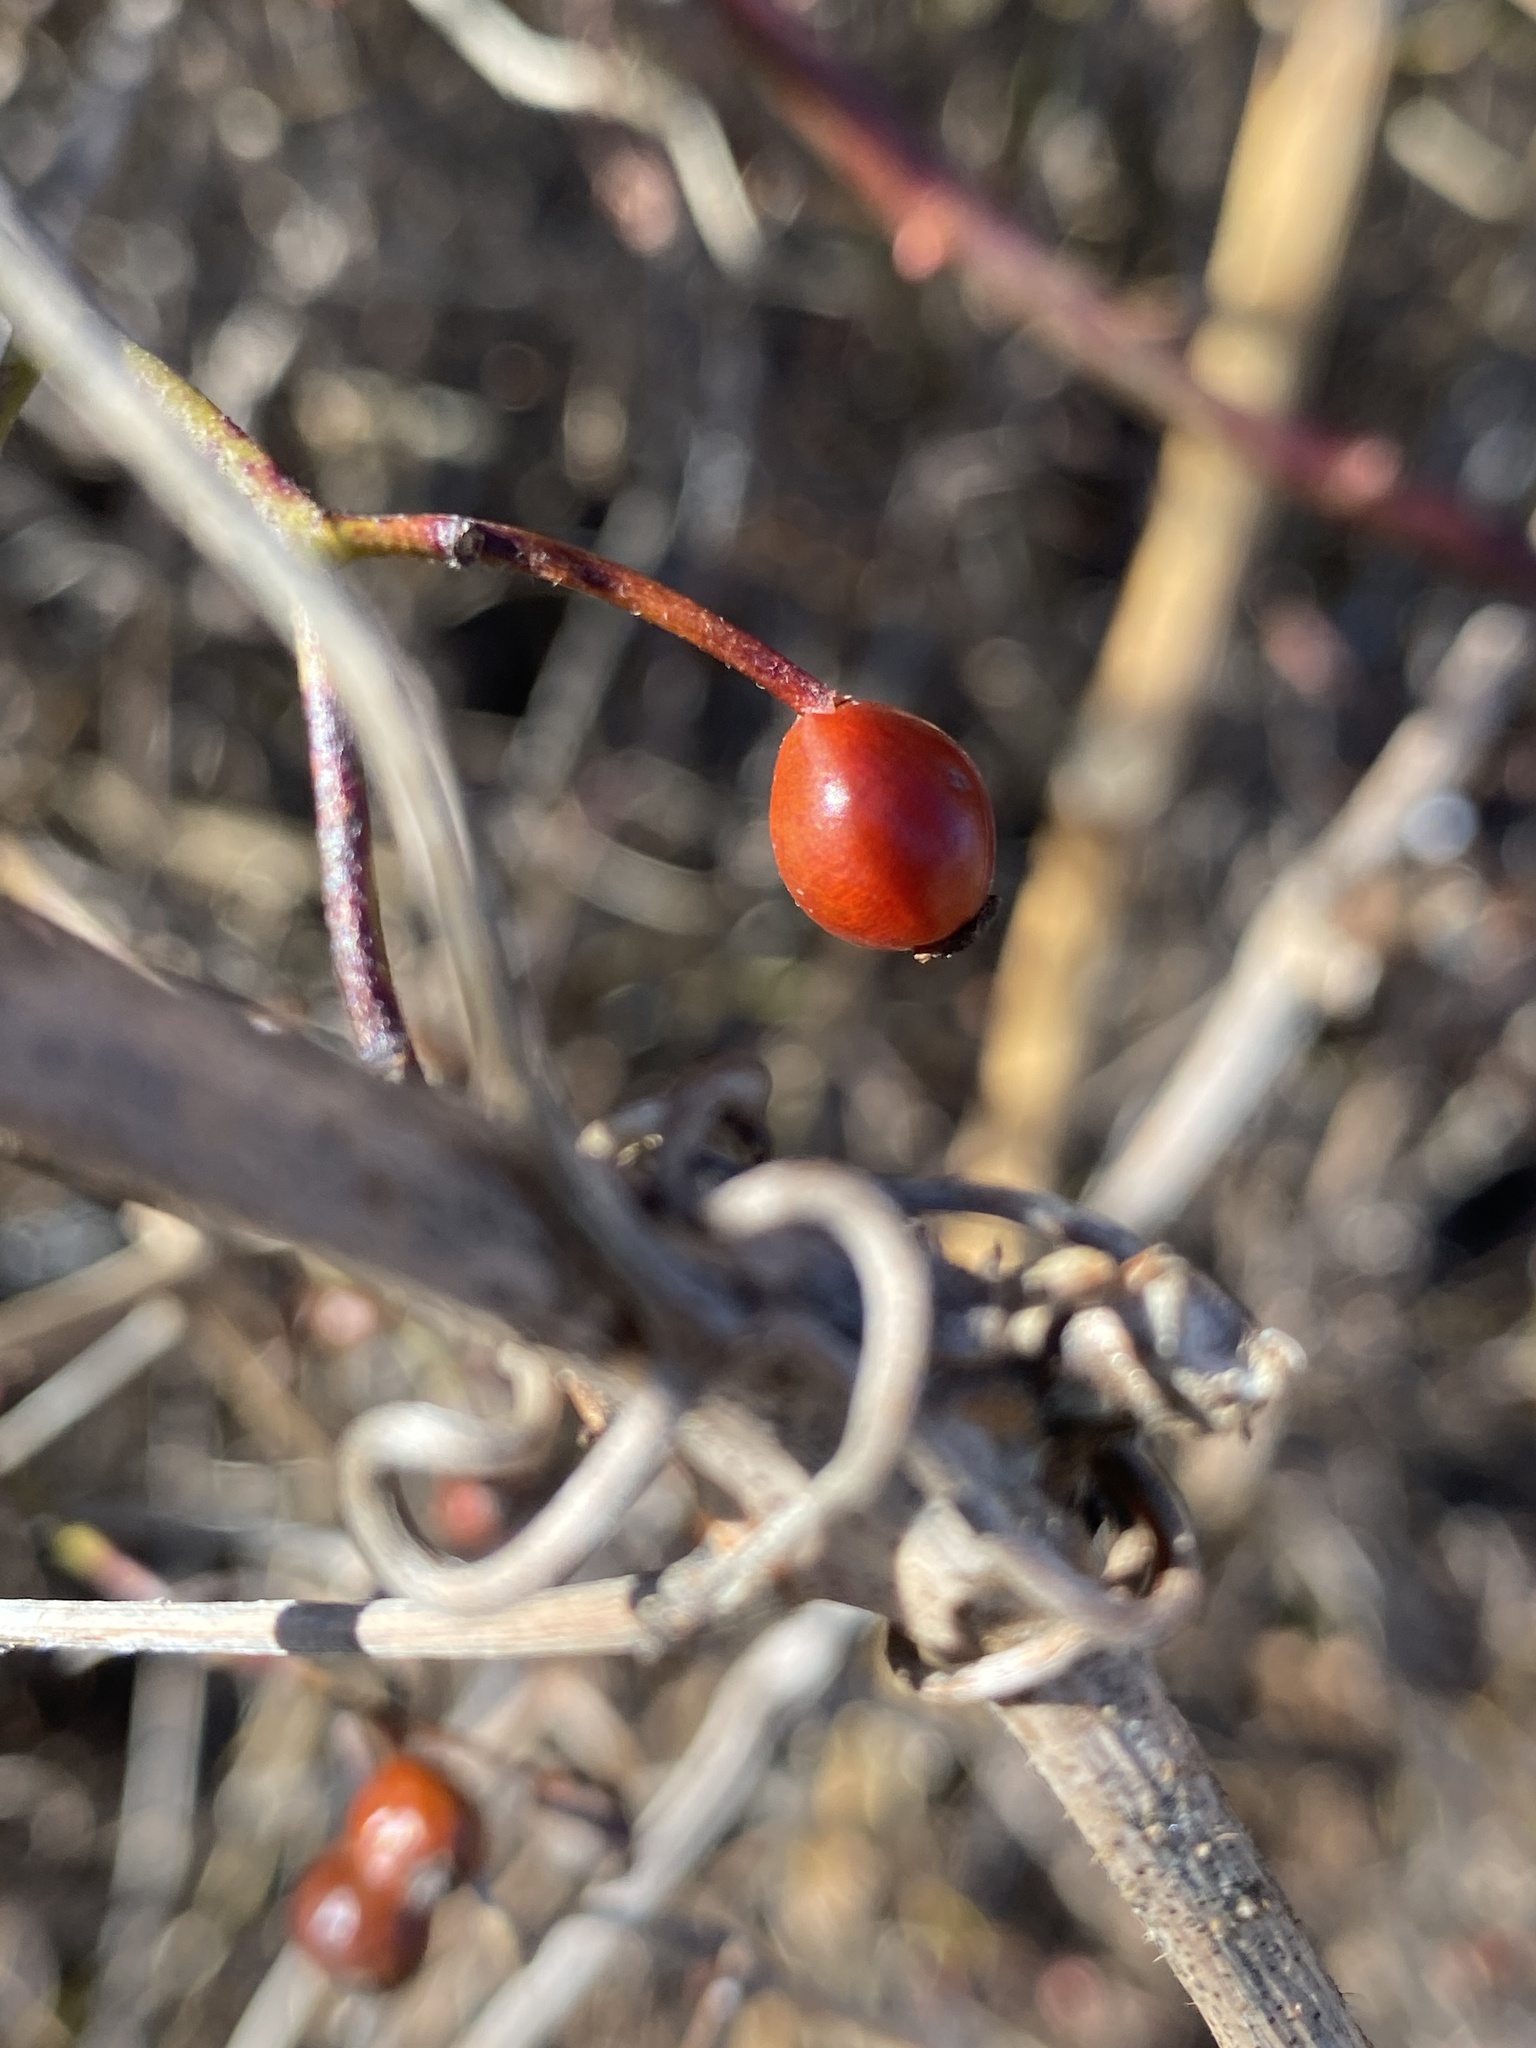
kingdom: Plantae
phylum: Tracheophyta
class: Magnoliopsida
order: Rosales
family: Rosaceae
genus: Rosa
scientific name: Rosa multiflora
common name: Multiflora rose
